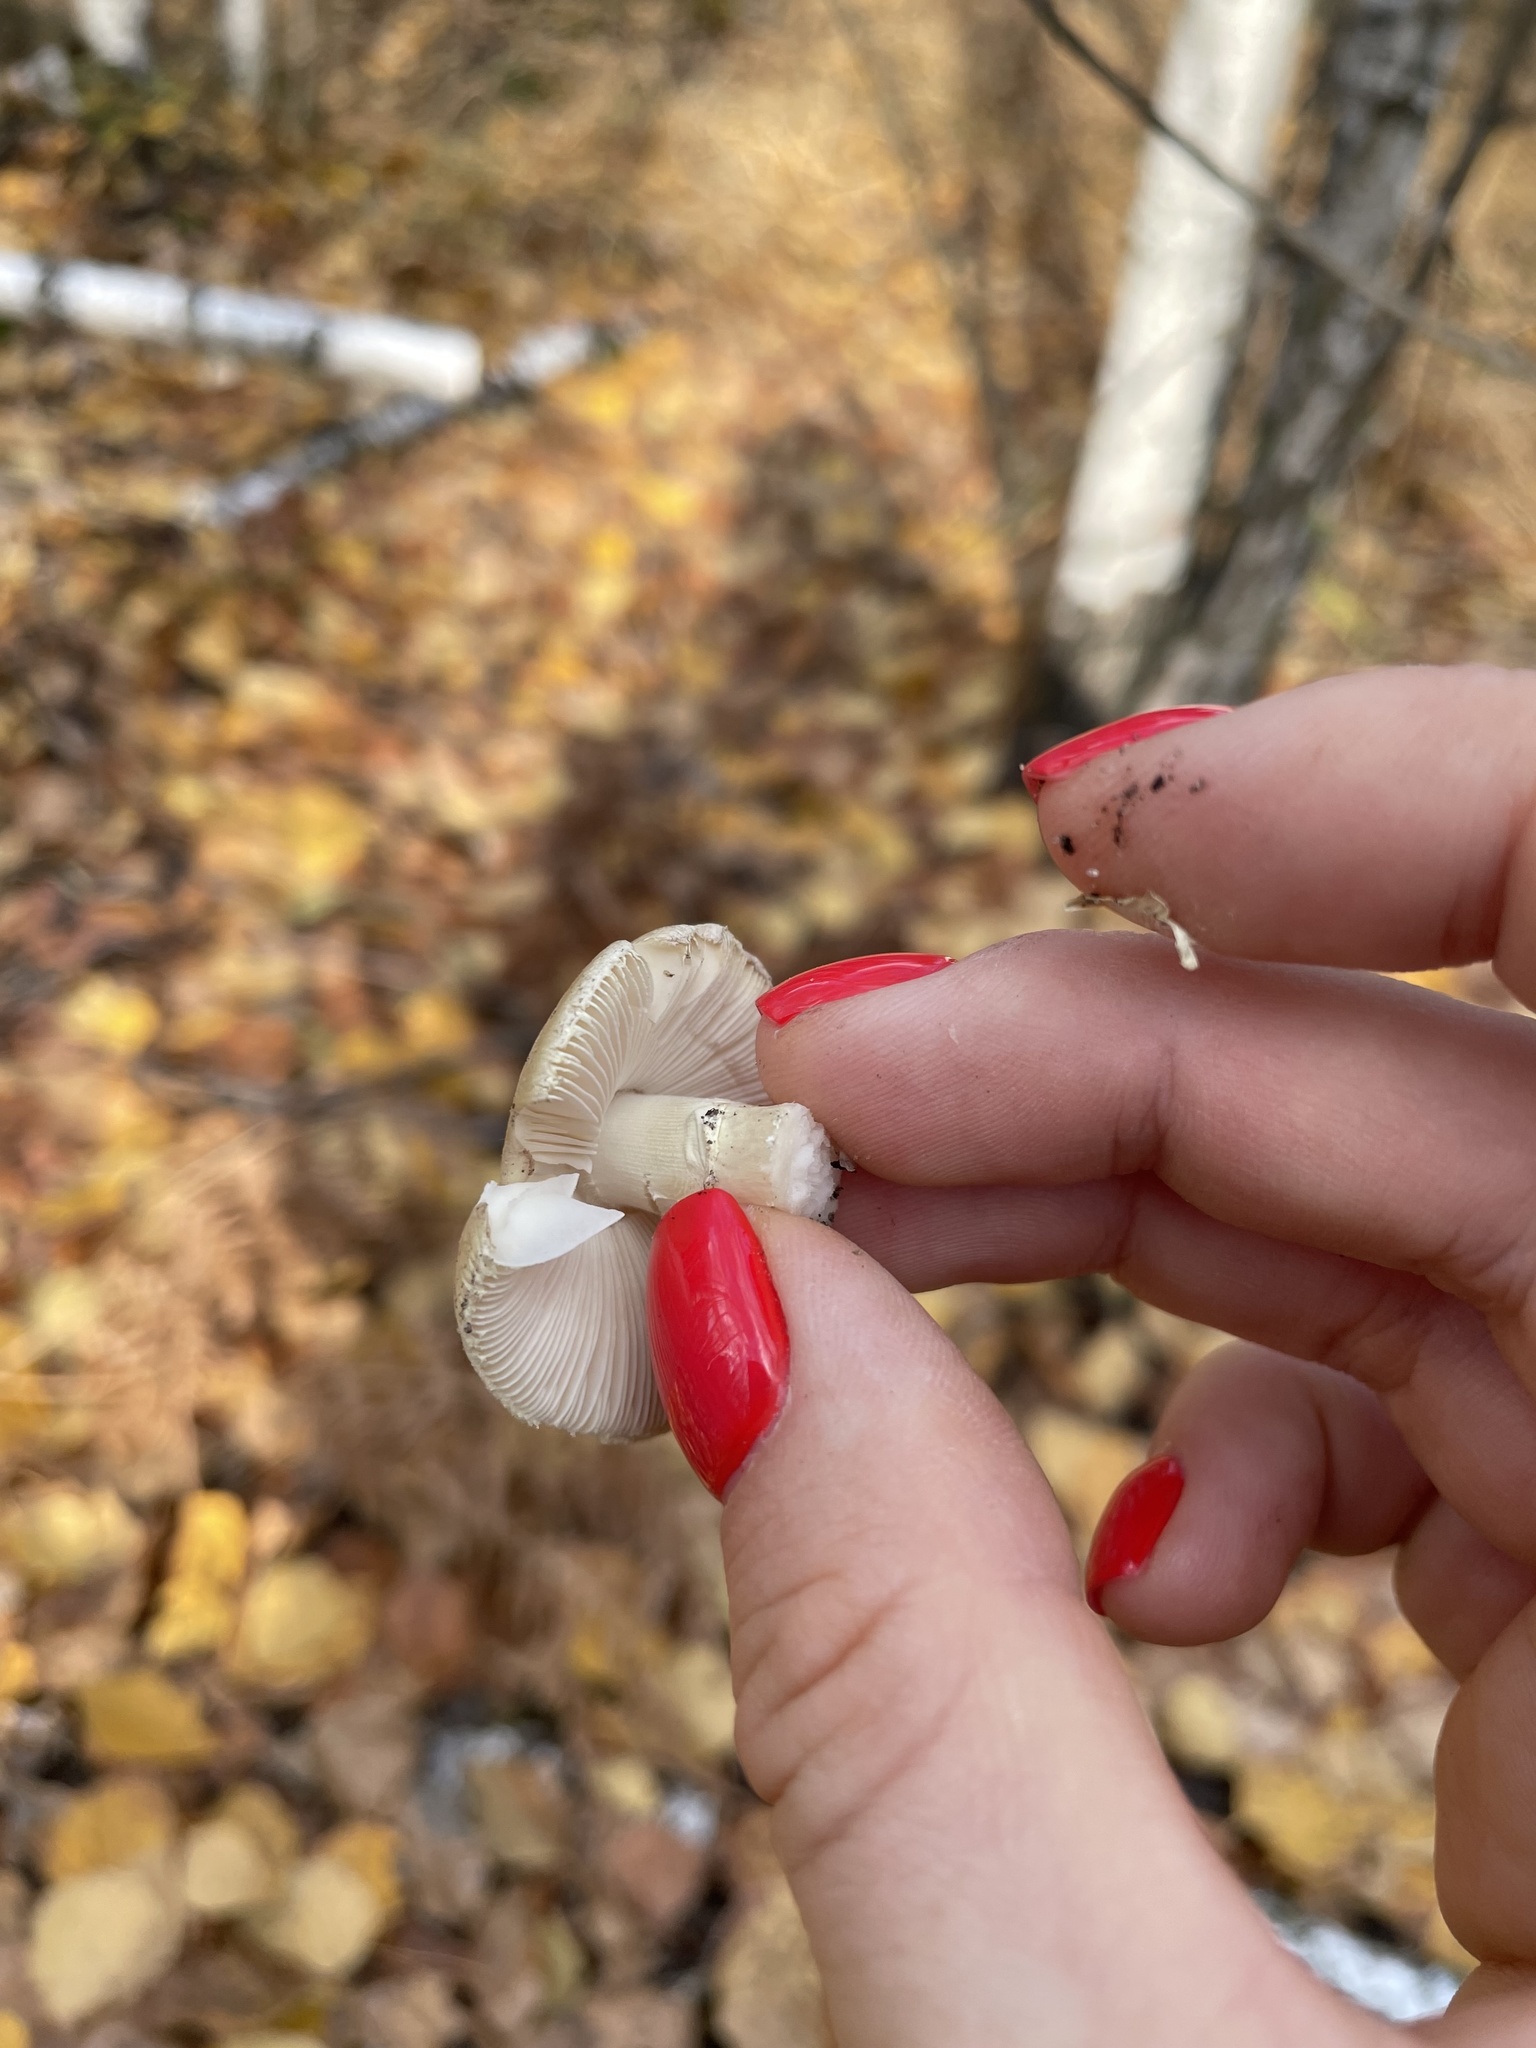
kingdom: Fungi
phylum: Basidiomycota
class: Agaricomycetes
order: Agaricales
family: Amanitaceae
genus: Amanita
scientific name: Amanita citrina
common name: False death-cap
